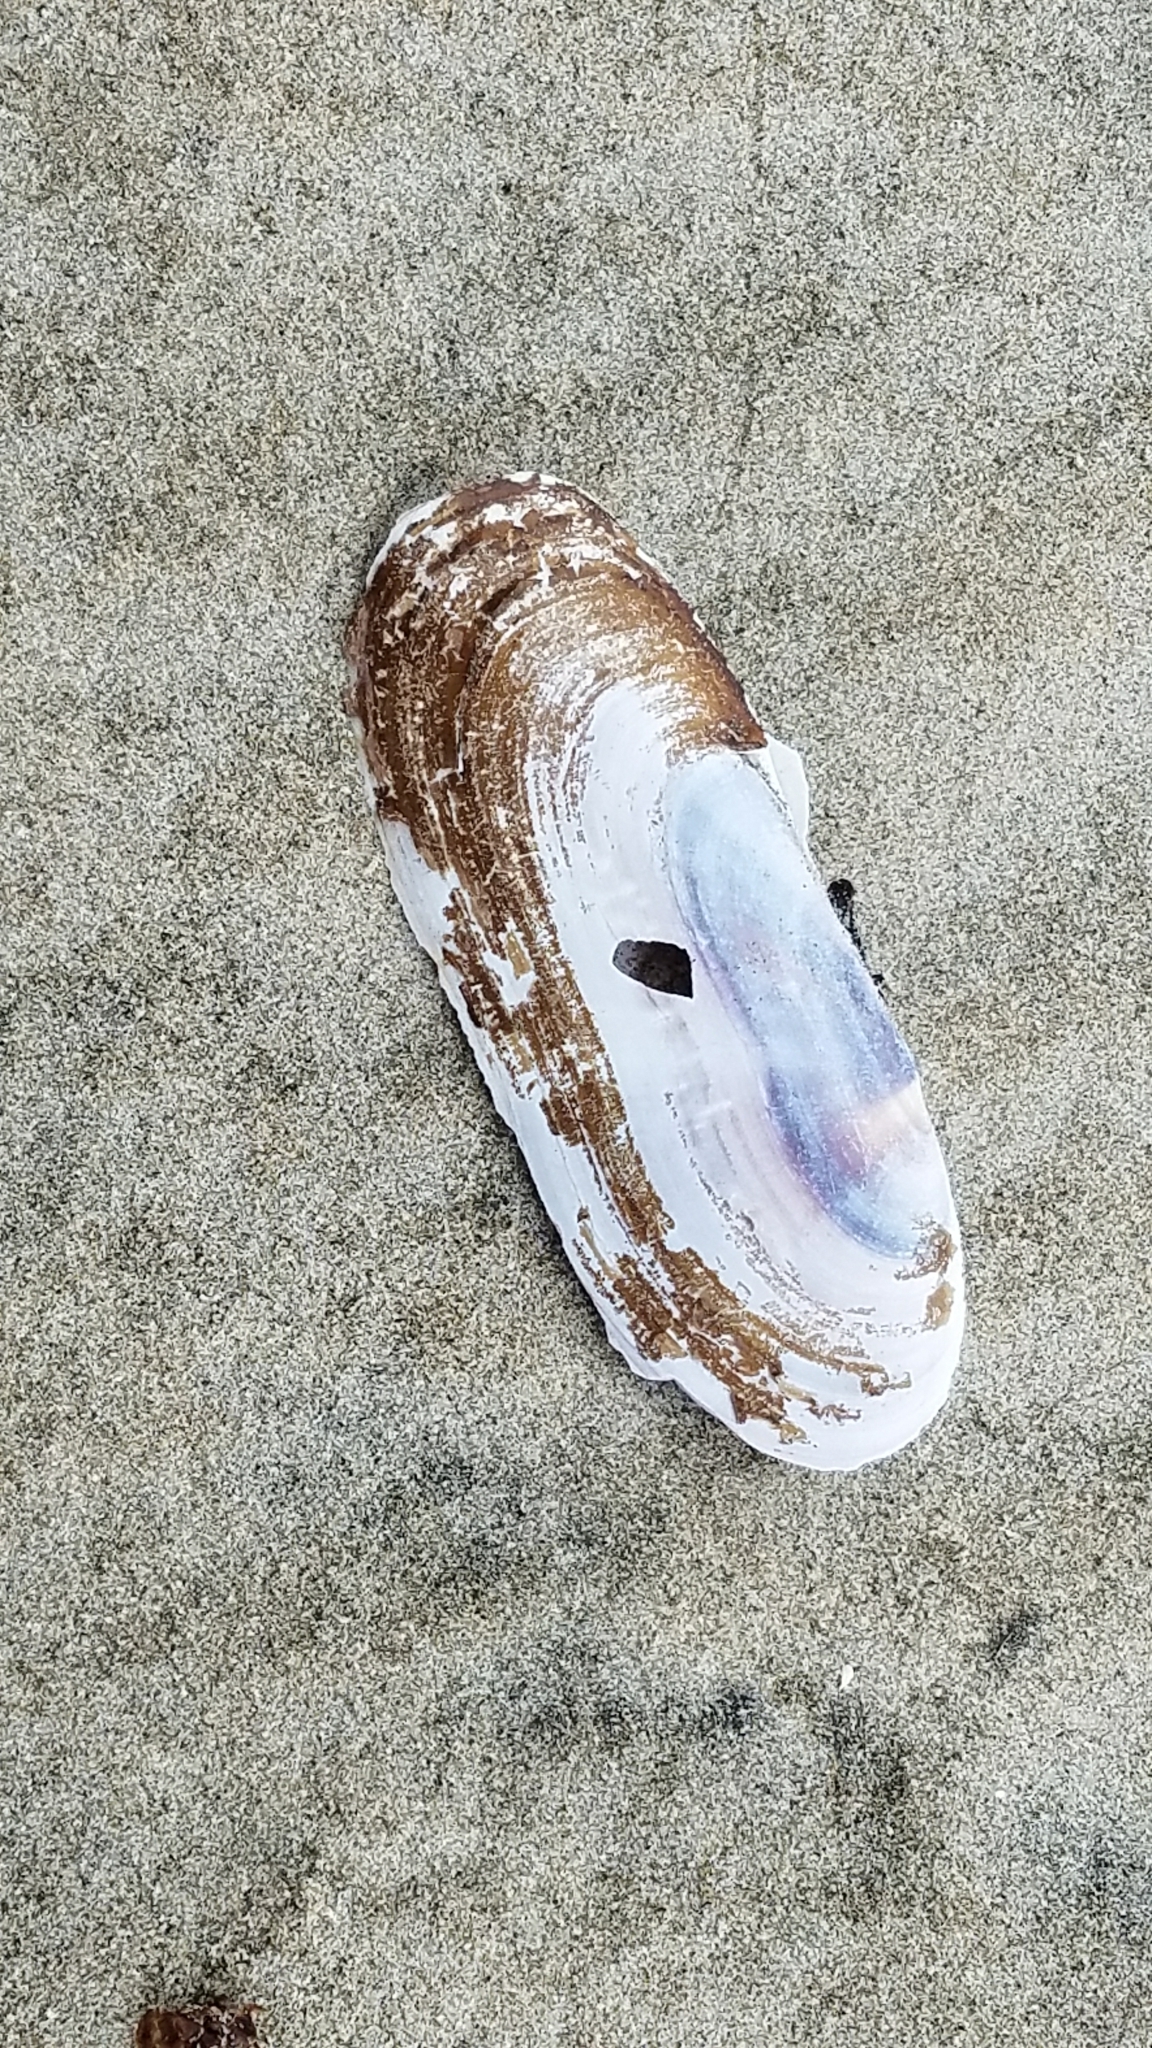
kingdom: Animalia
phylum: Mollusca
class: Bivalvia
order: Adapedonta
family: Pharidae
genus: Siliqua
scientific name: Siliqua patula
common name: Pacific razor clam
